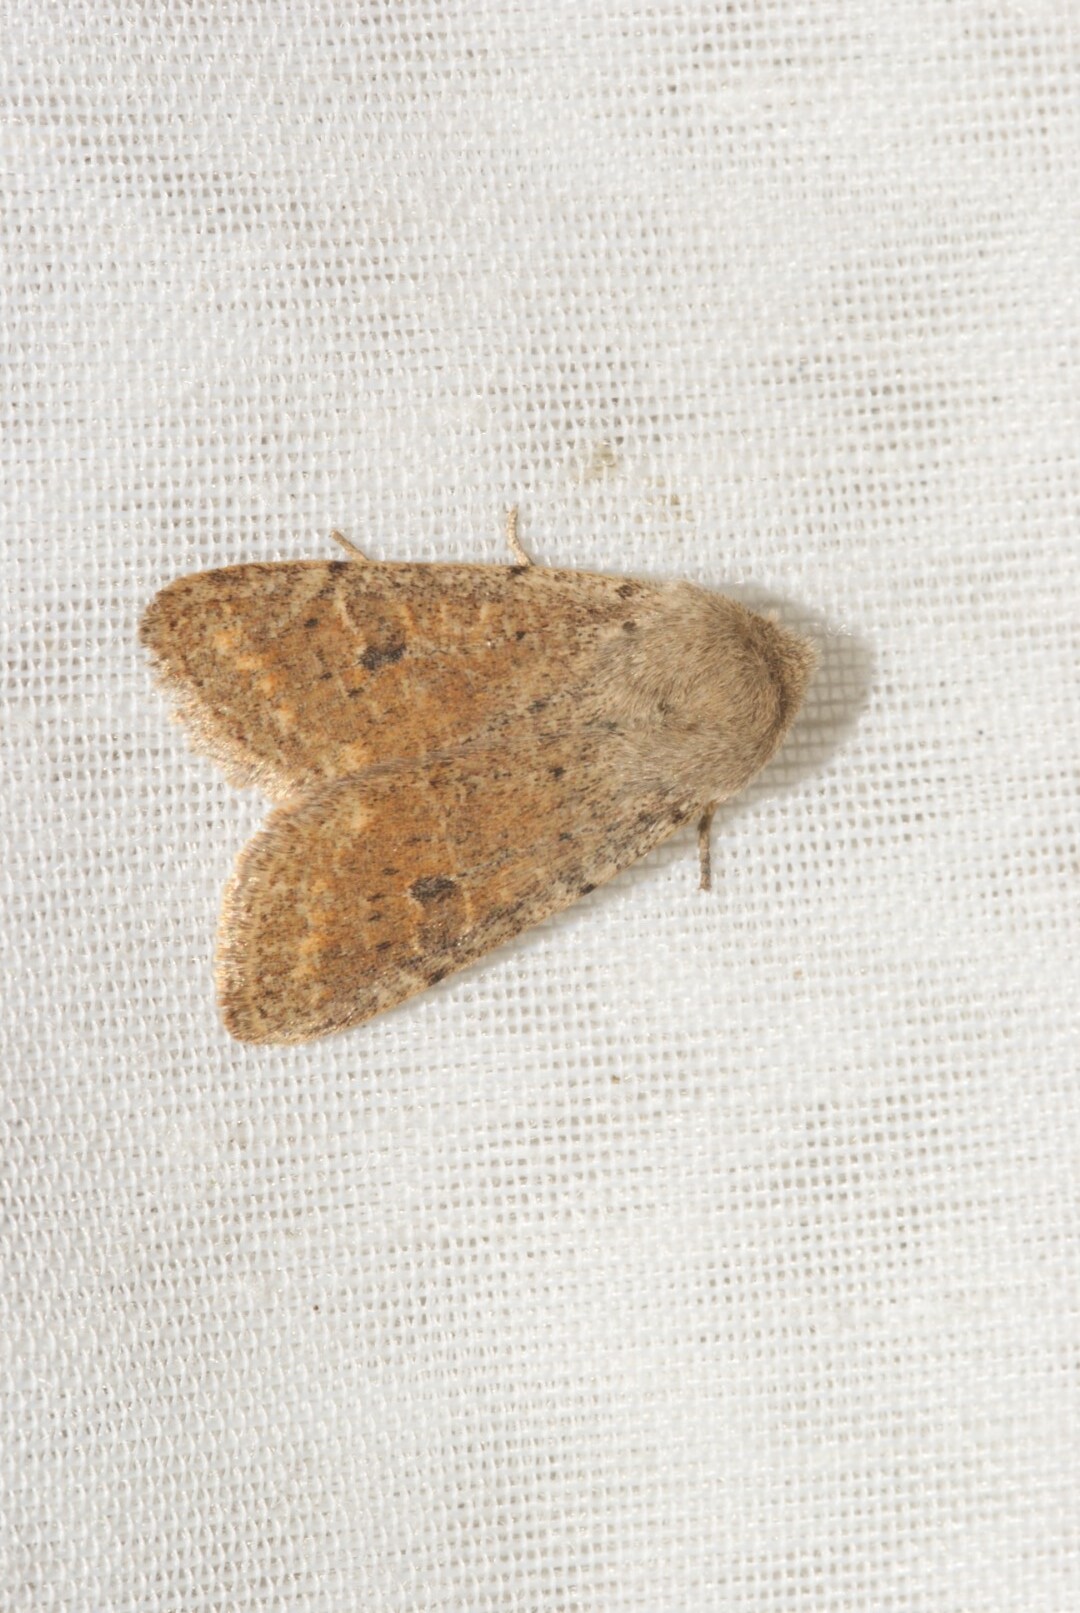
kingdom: Animalia
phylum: Arthropoda
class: Insecta
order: Lepidoptera
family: Noctuidae
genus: Orthosia
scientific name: Orthosia cruda
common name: Small quaker
